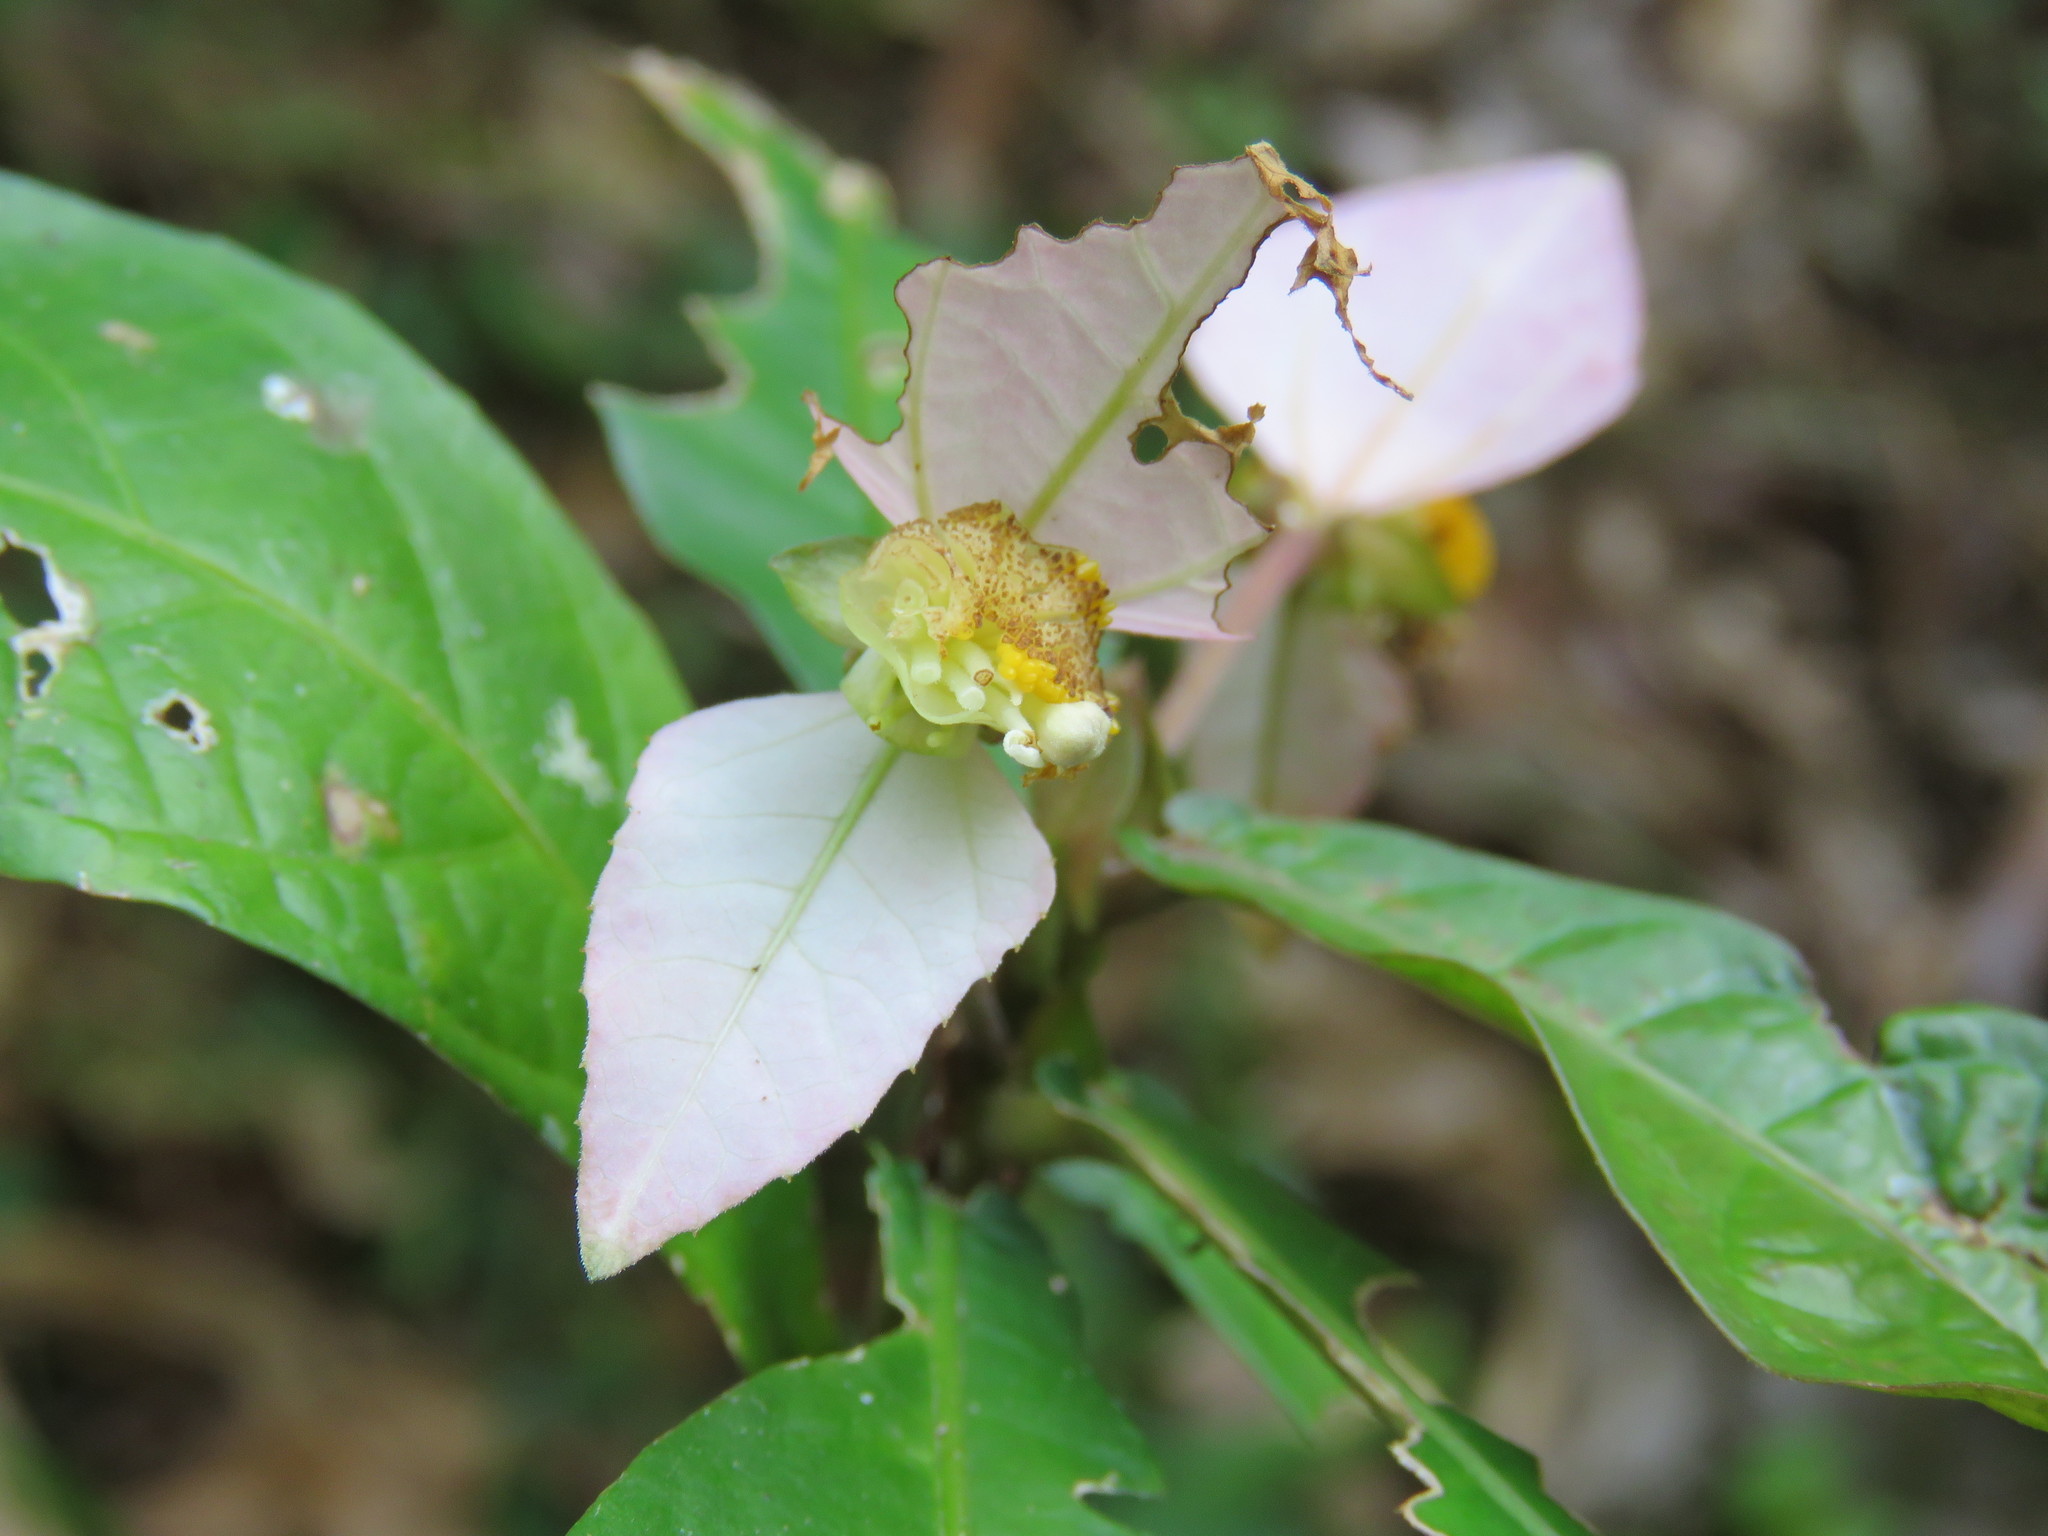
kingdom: Plantae
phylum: Tracheophyta
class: Magnoliopsida
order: Malpighiales
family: Euphorbiaceae
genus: Dalechampia
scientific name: Dalechampia spathulata
